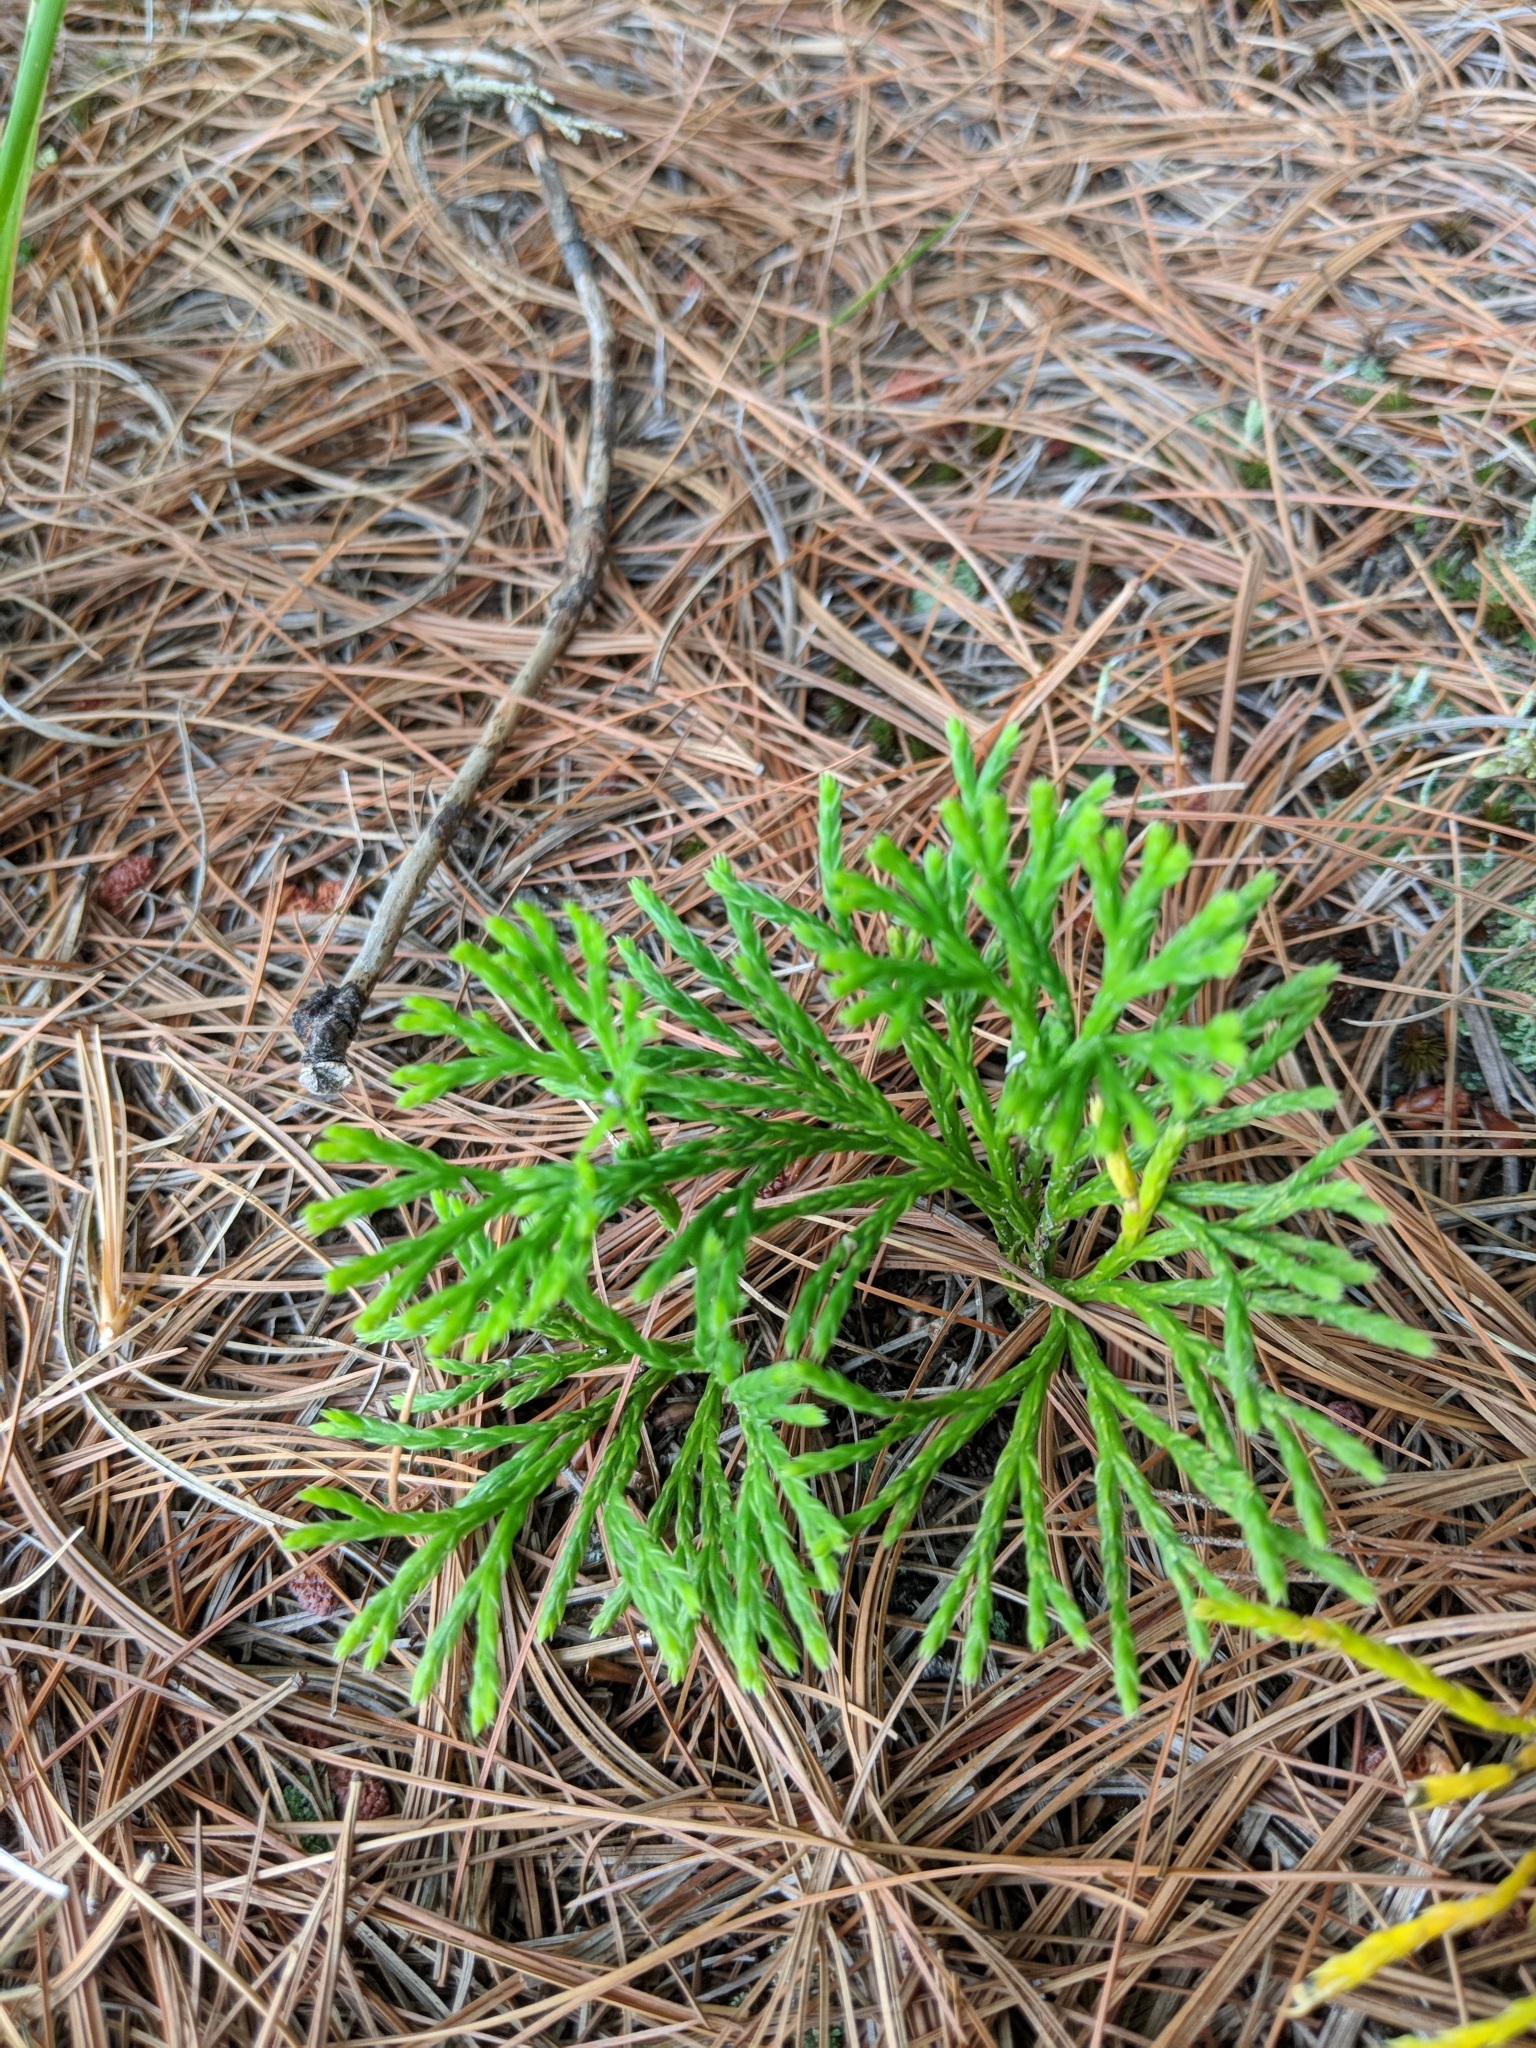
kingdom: Plantae
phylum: Tracheophyta
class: Lycopodiopsida
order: Lycopodiales
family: Lycopodiaceae
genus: Diphasiastrum
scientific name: Diphasiastrum digitatum
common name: Southern running-pine
